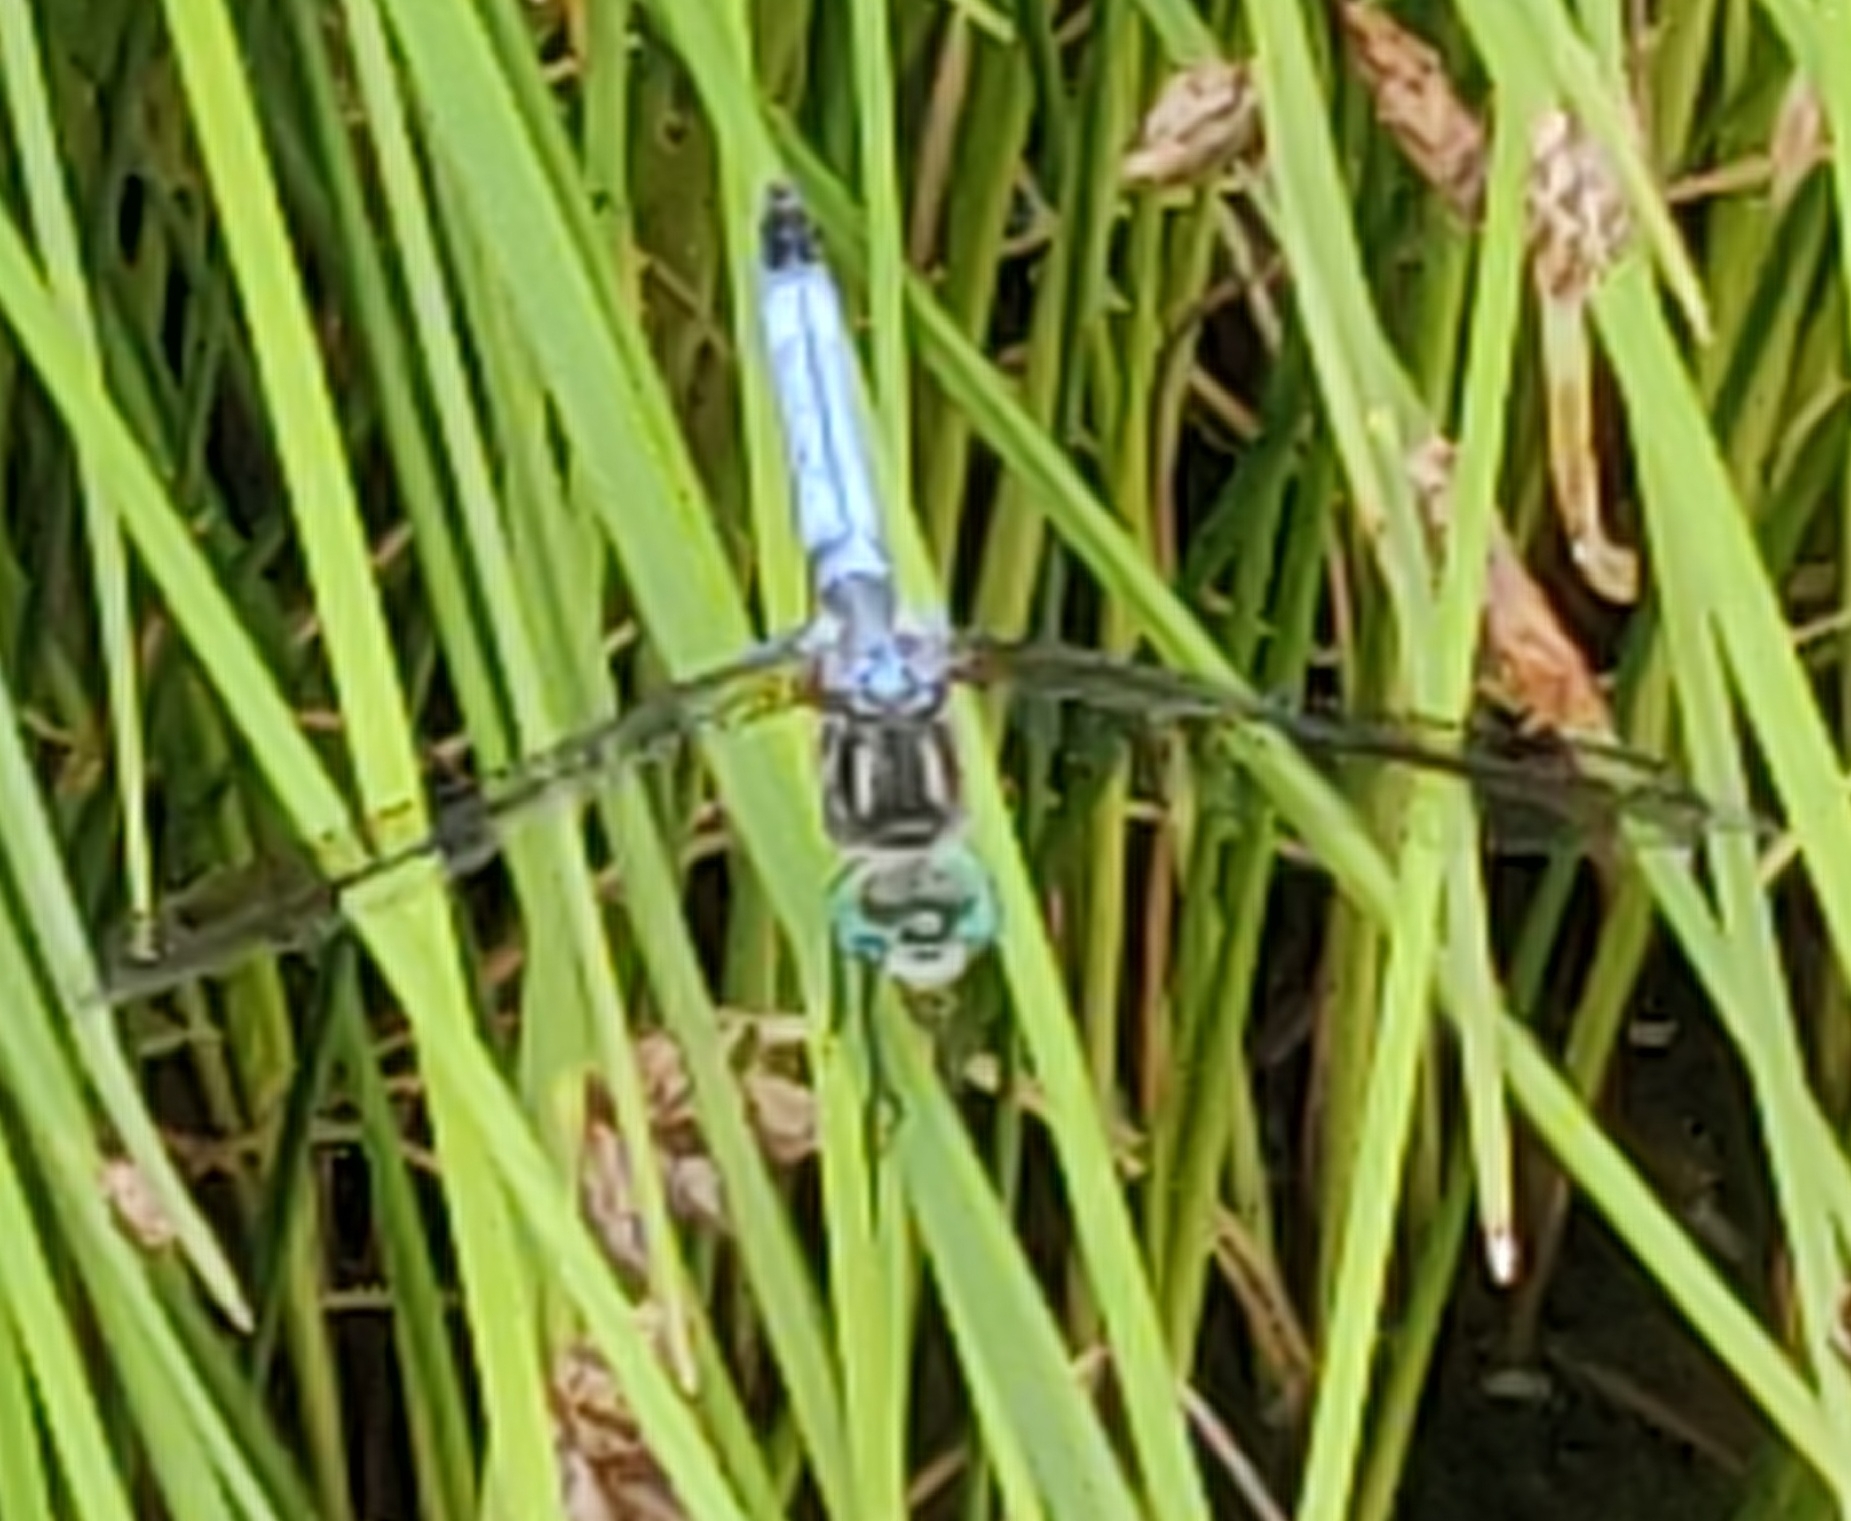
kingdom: Animalia
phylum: Arthropoda
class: Insecta
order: Odonata
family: Libellulidae
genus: Pachydiplax
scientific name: Pachydiplax longipennis
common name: Blue dasher
